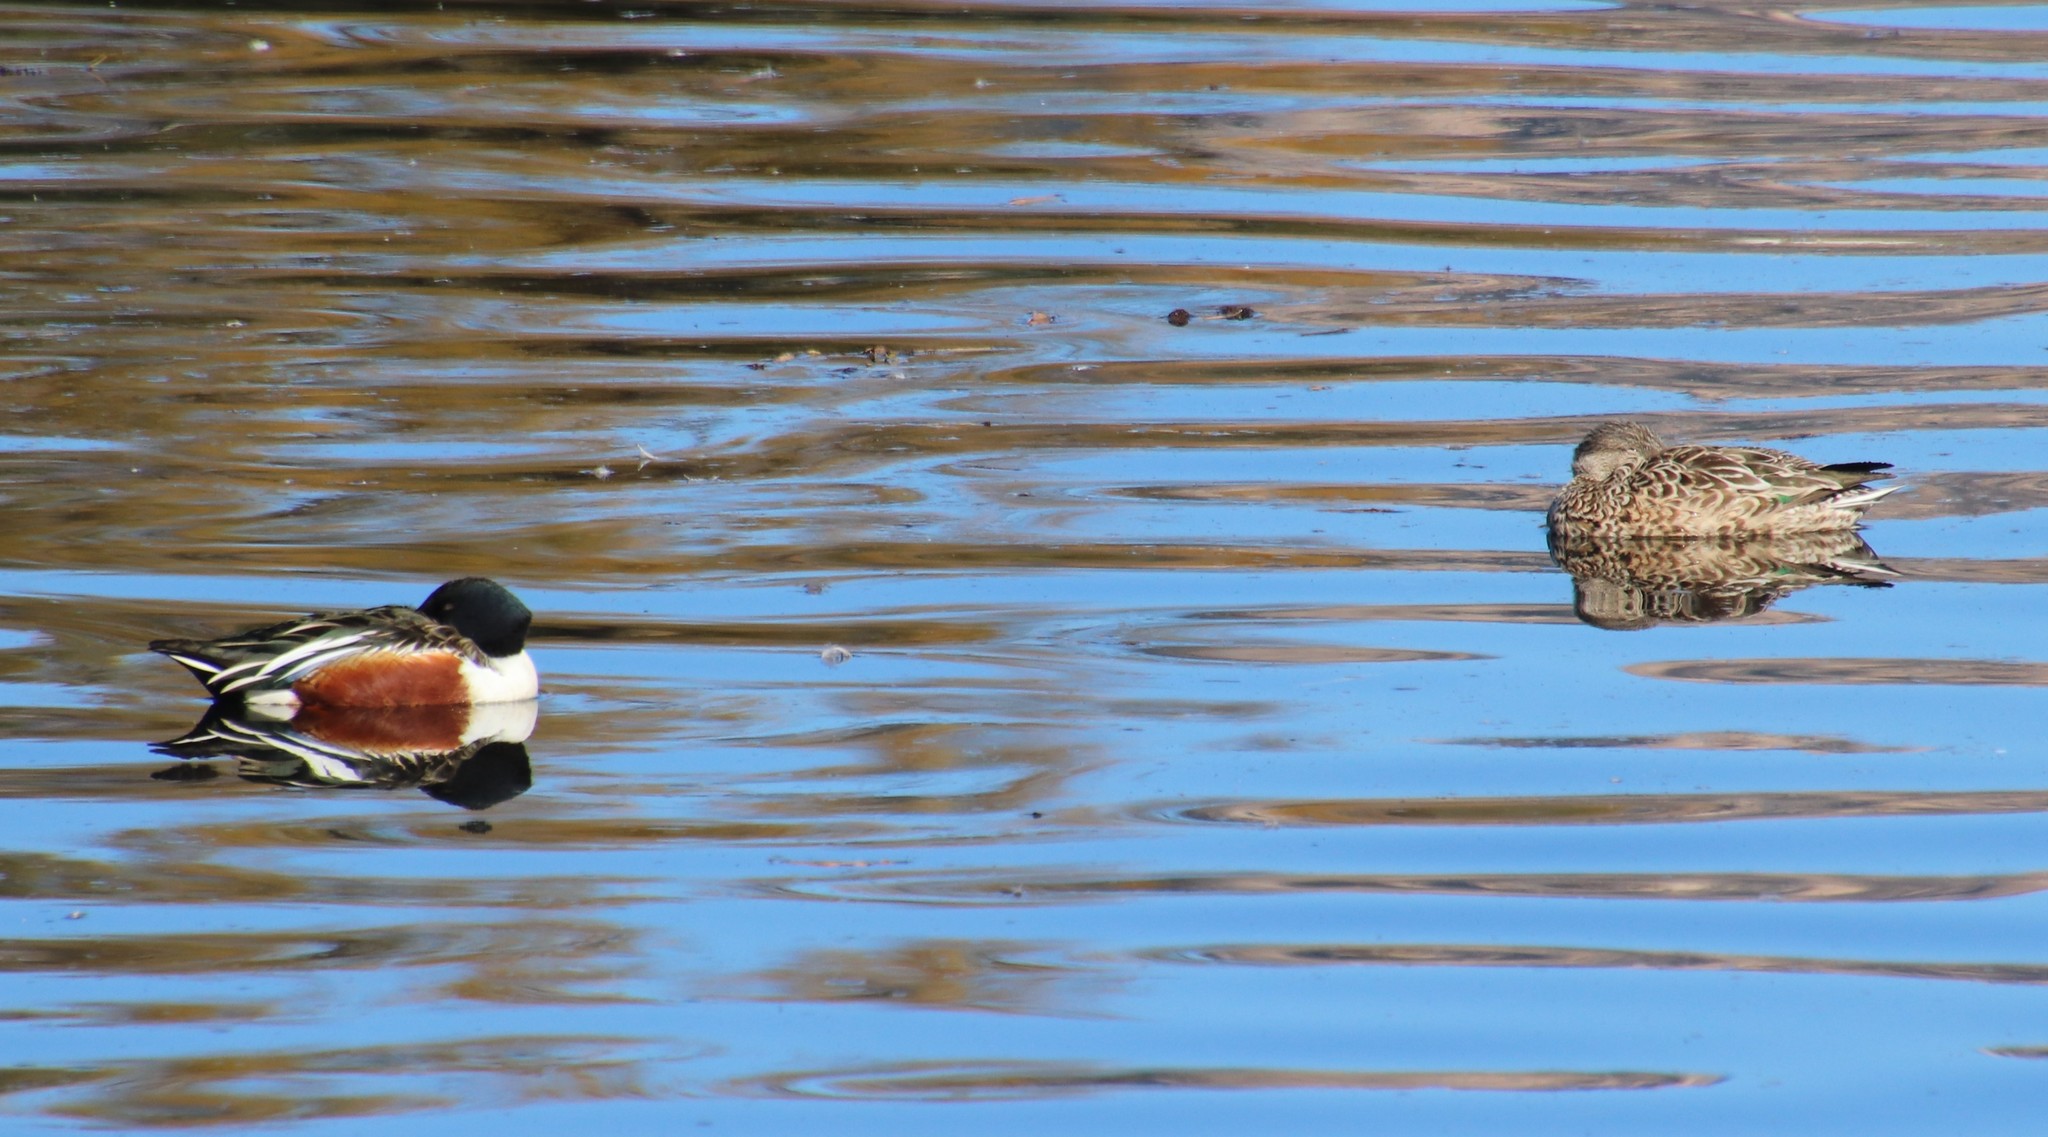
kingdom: Animalia
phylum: Chordata
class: Aves
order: Anseriformes
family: Anatidae
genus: Spatula
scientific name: Spatula clypeata
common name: Northern shoveler
